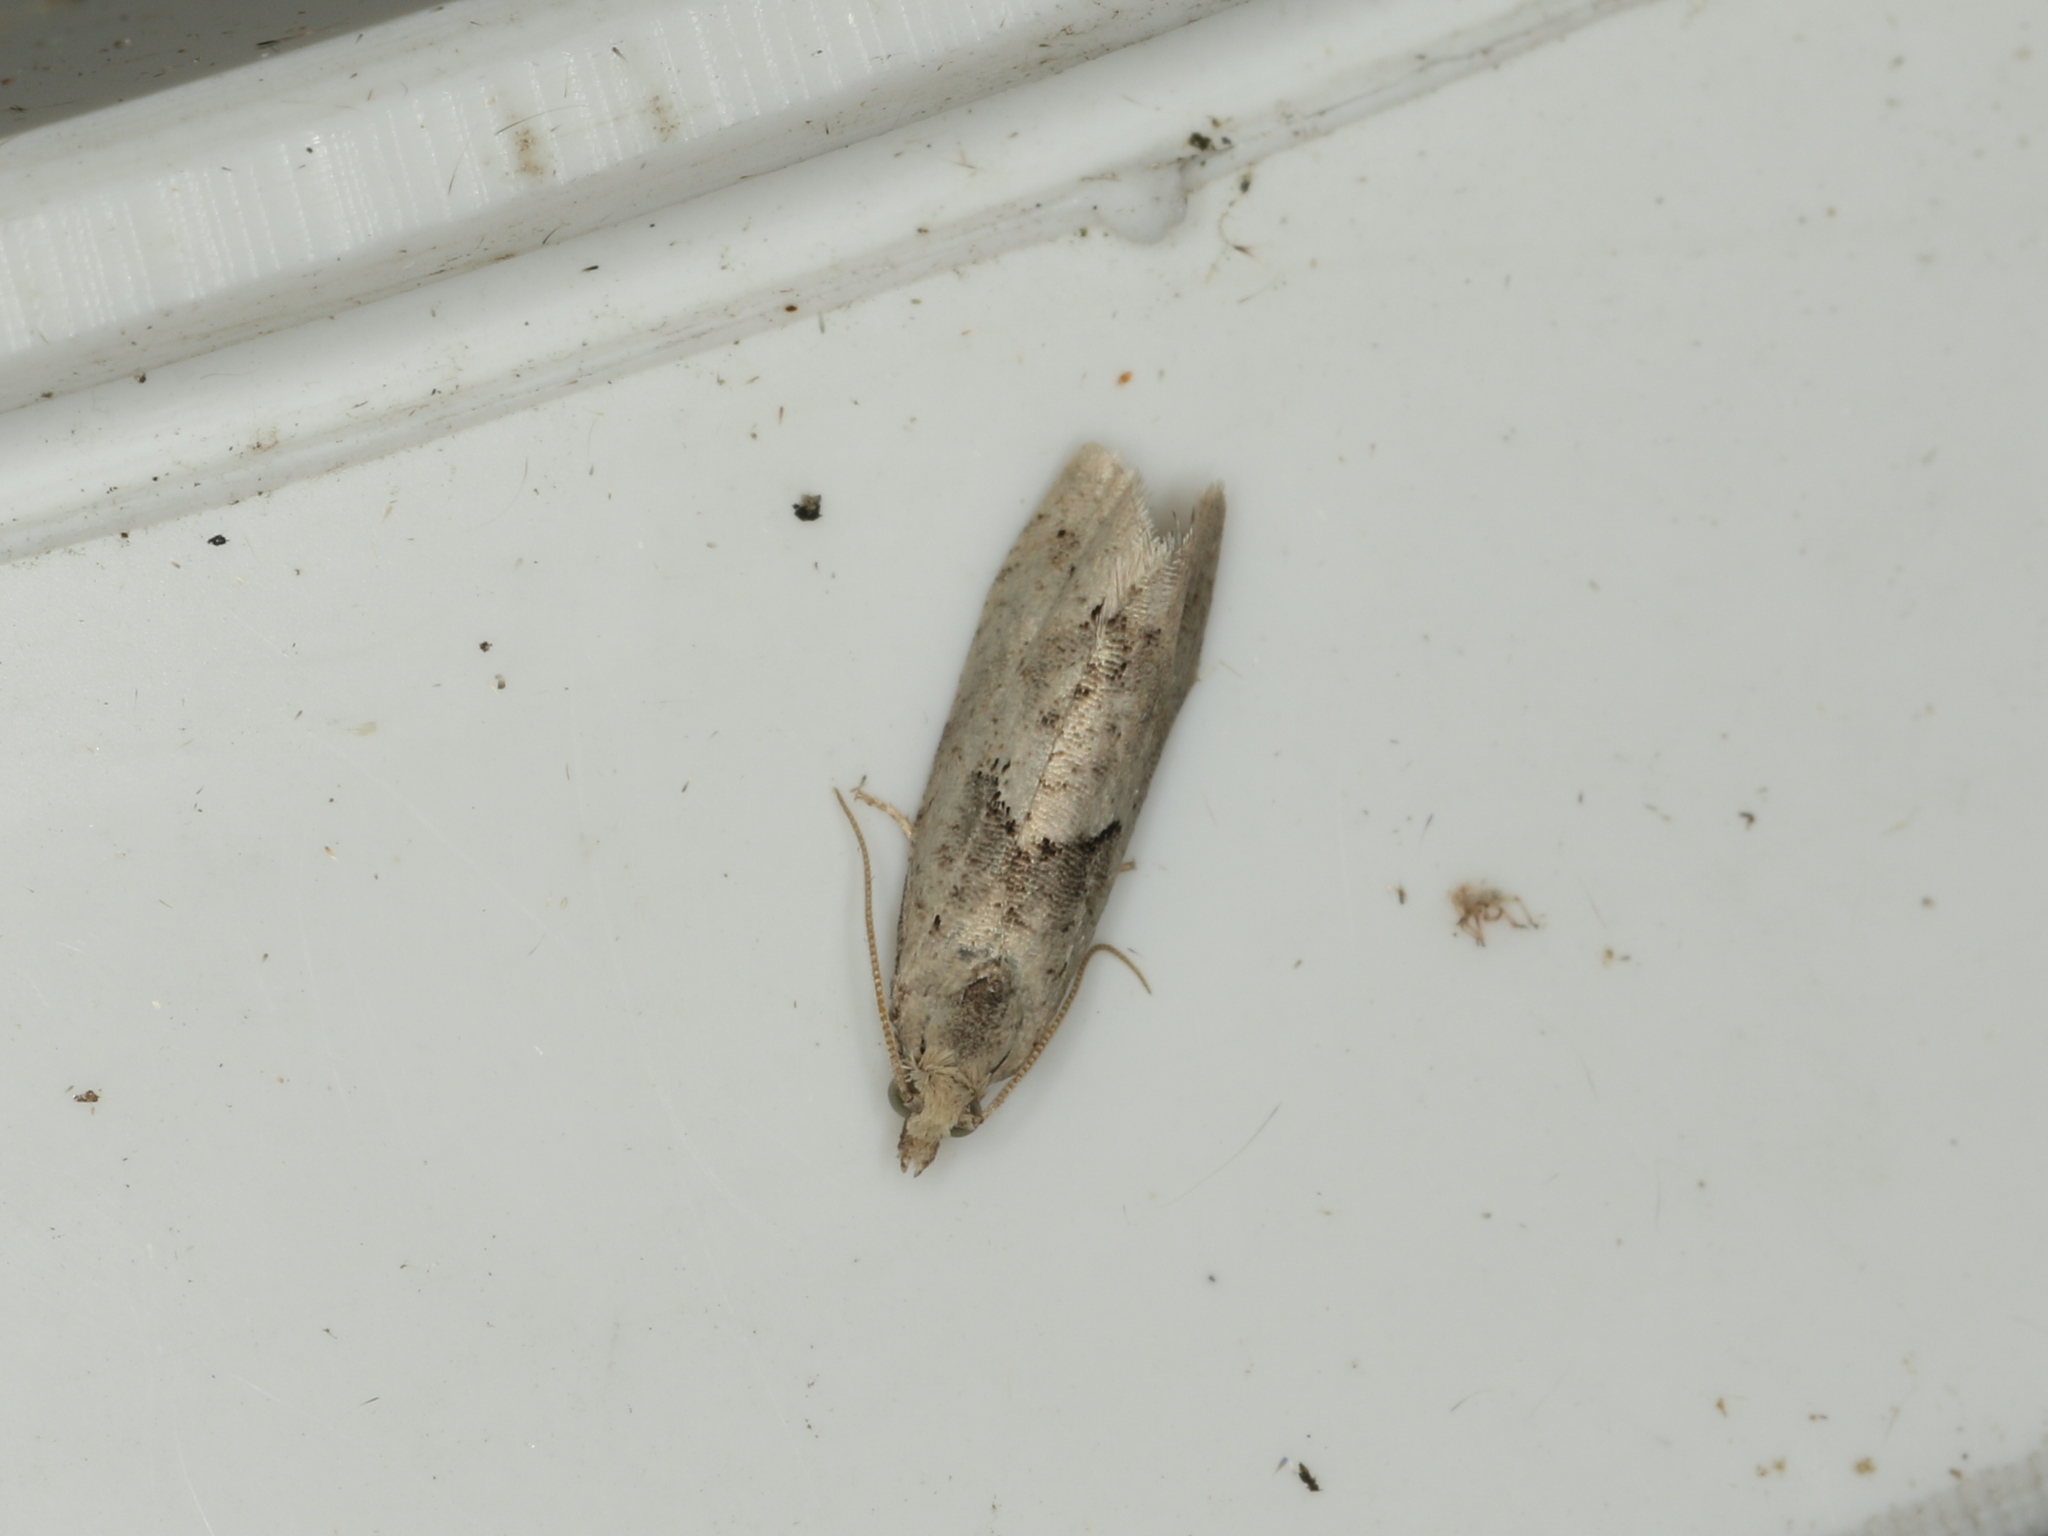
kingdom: Animalia
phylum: Arthropoda
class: Insecta
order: Lepidoptera
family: Tortricidae
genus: Epinotia
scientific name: Epinotia bilunana
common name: Crescent bell
